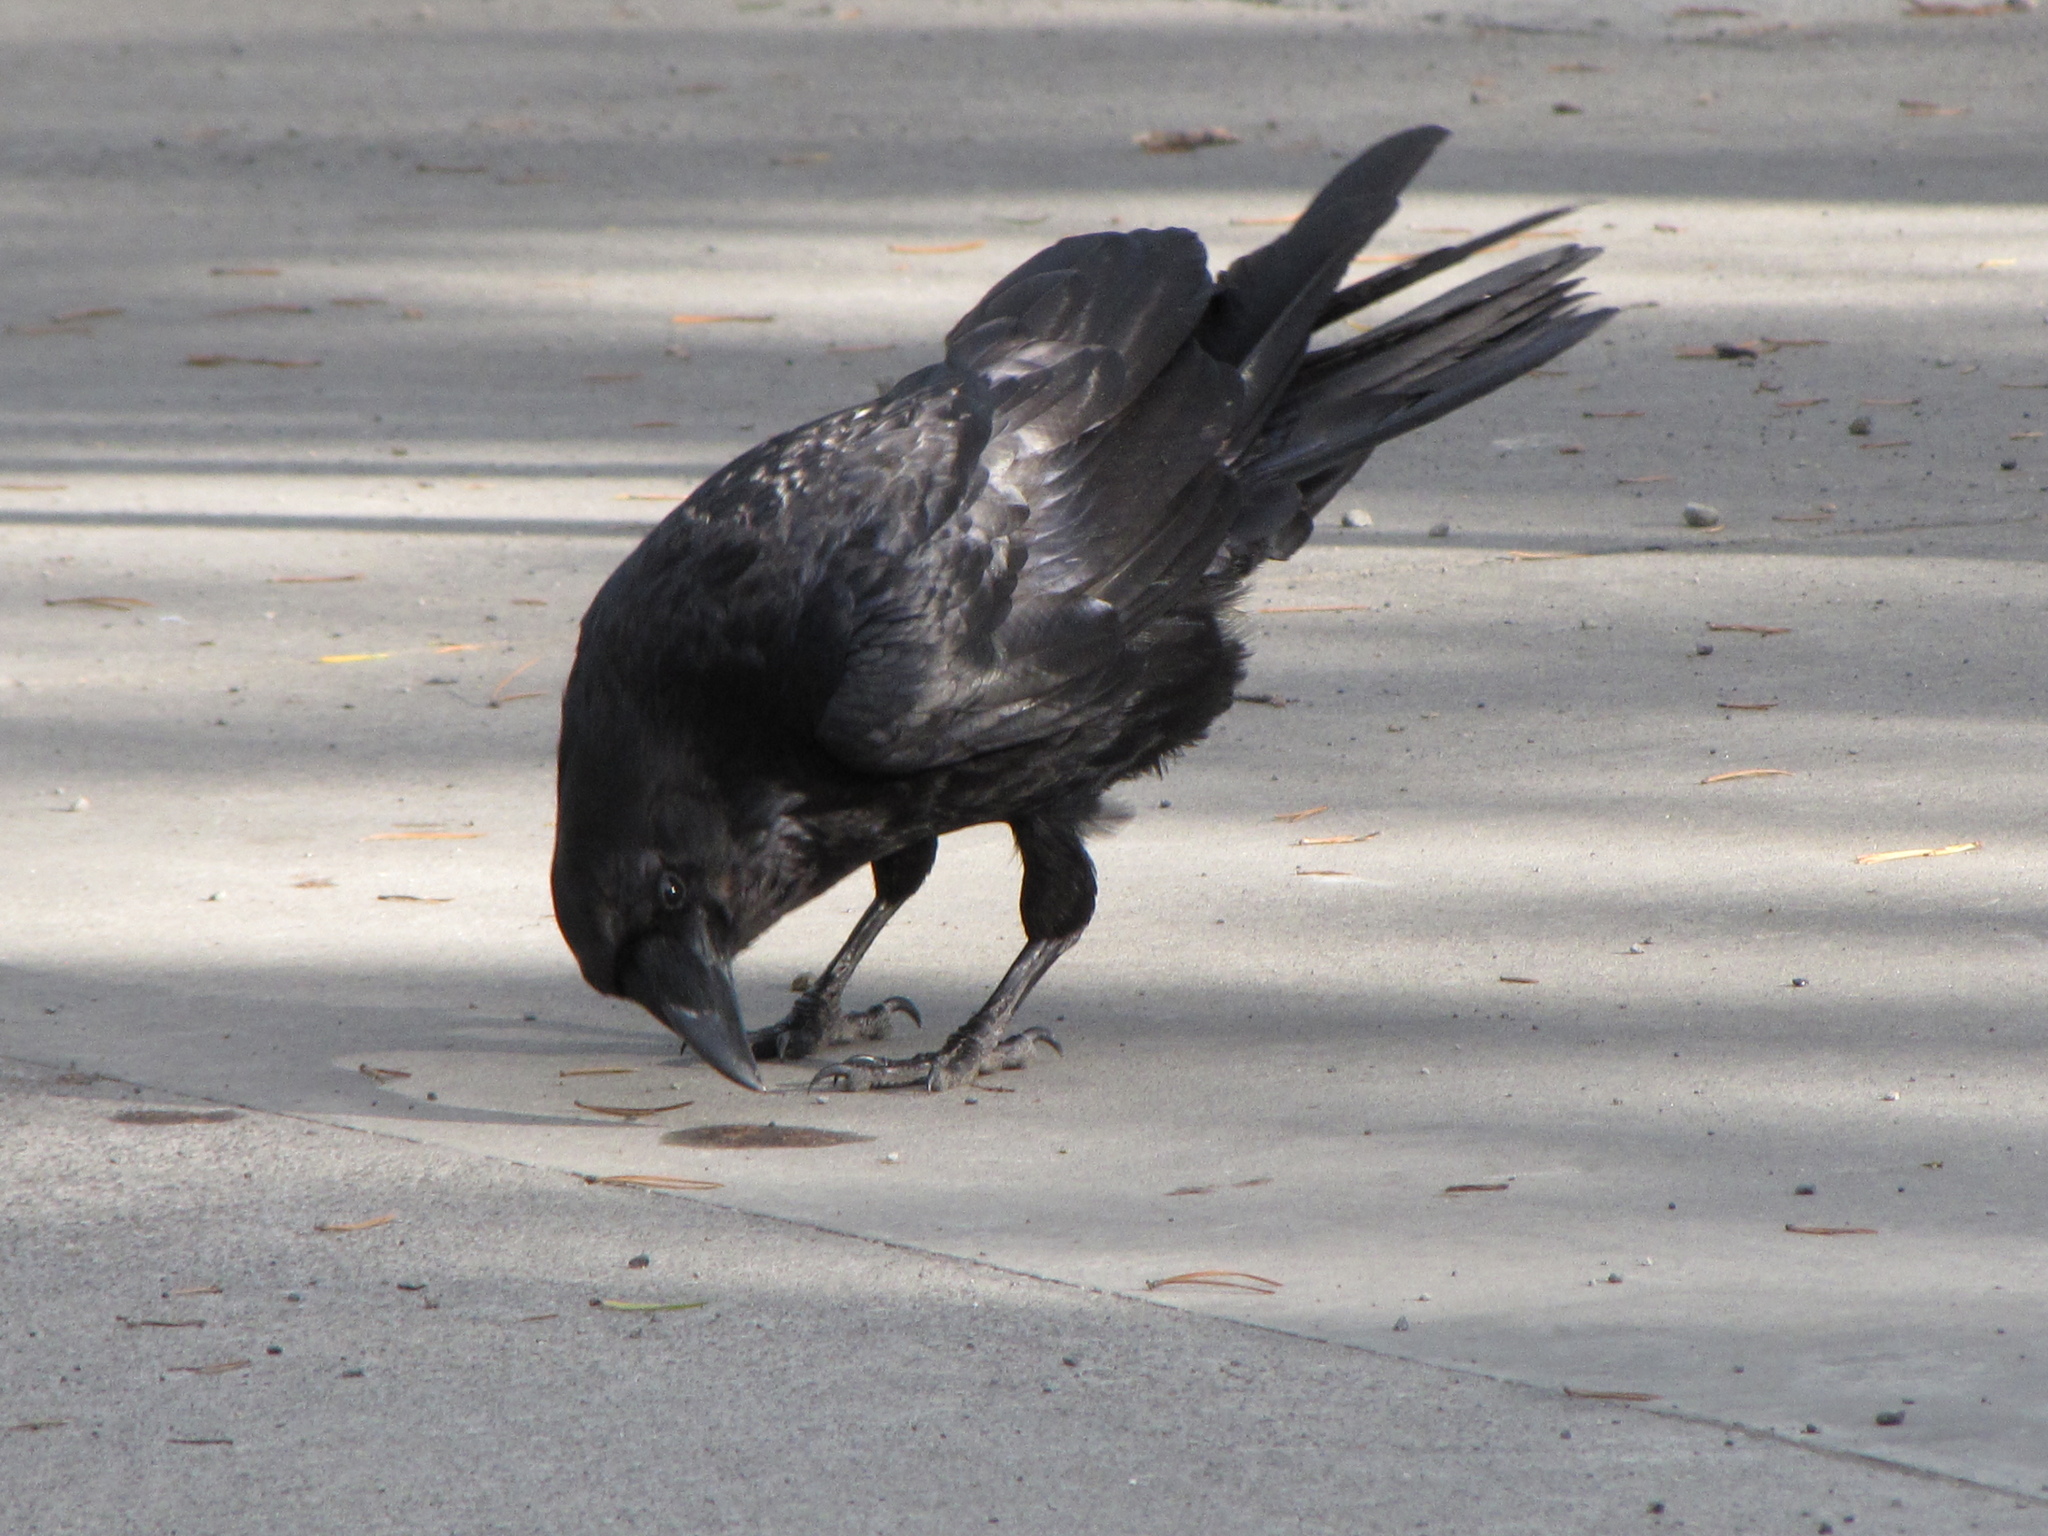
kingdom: Animalia
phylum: Chordata
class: Aves
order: Passeriformes
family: Corvidae
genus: Corvus
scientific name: Corvus corax
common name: Common raven
